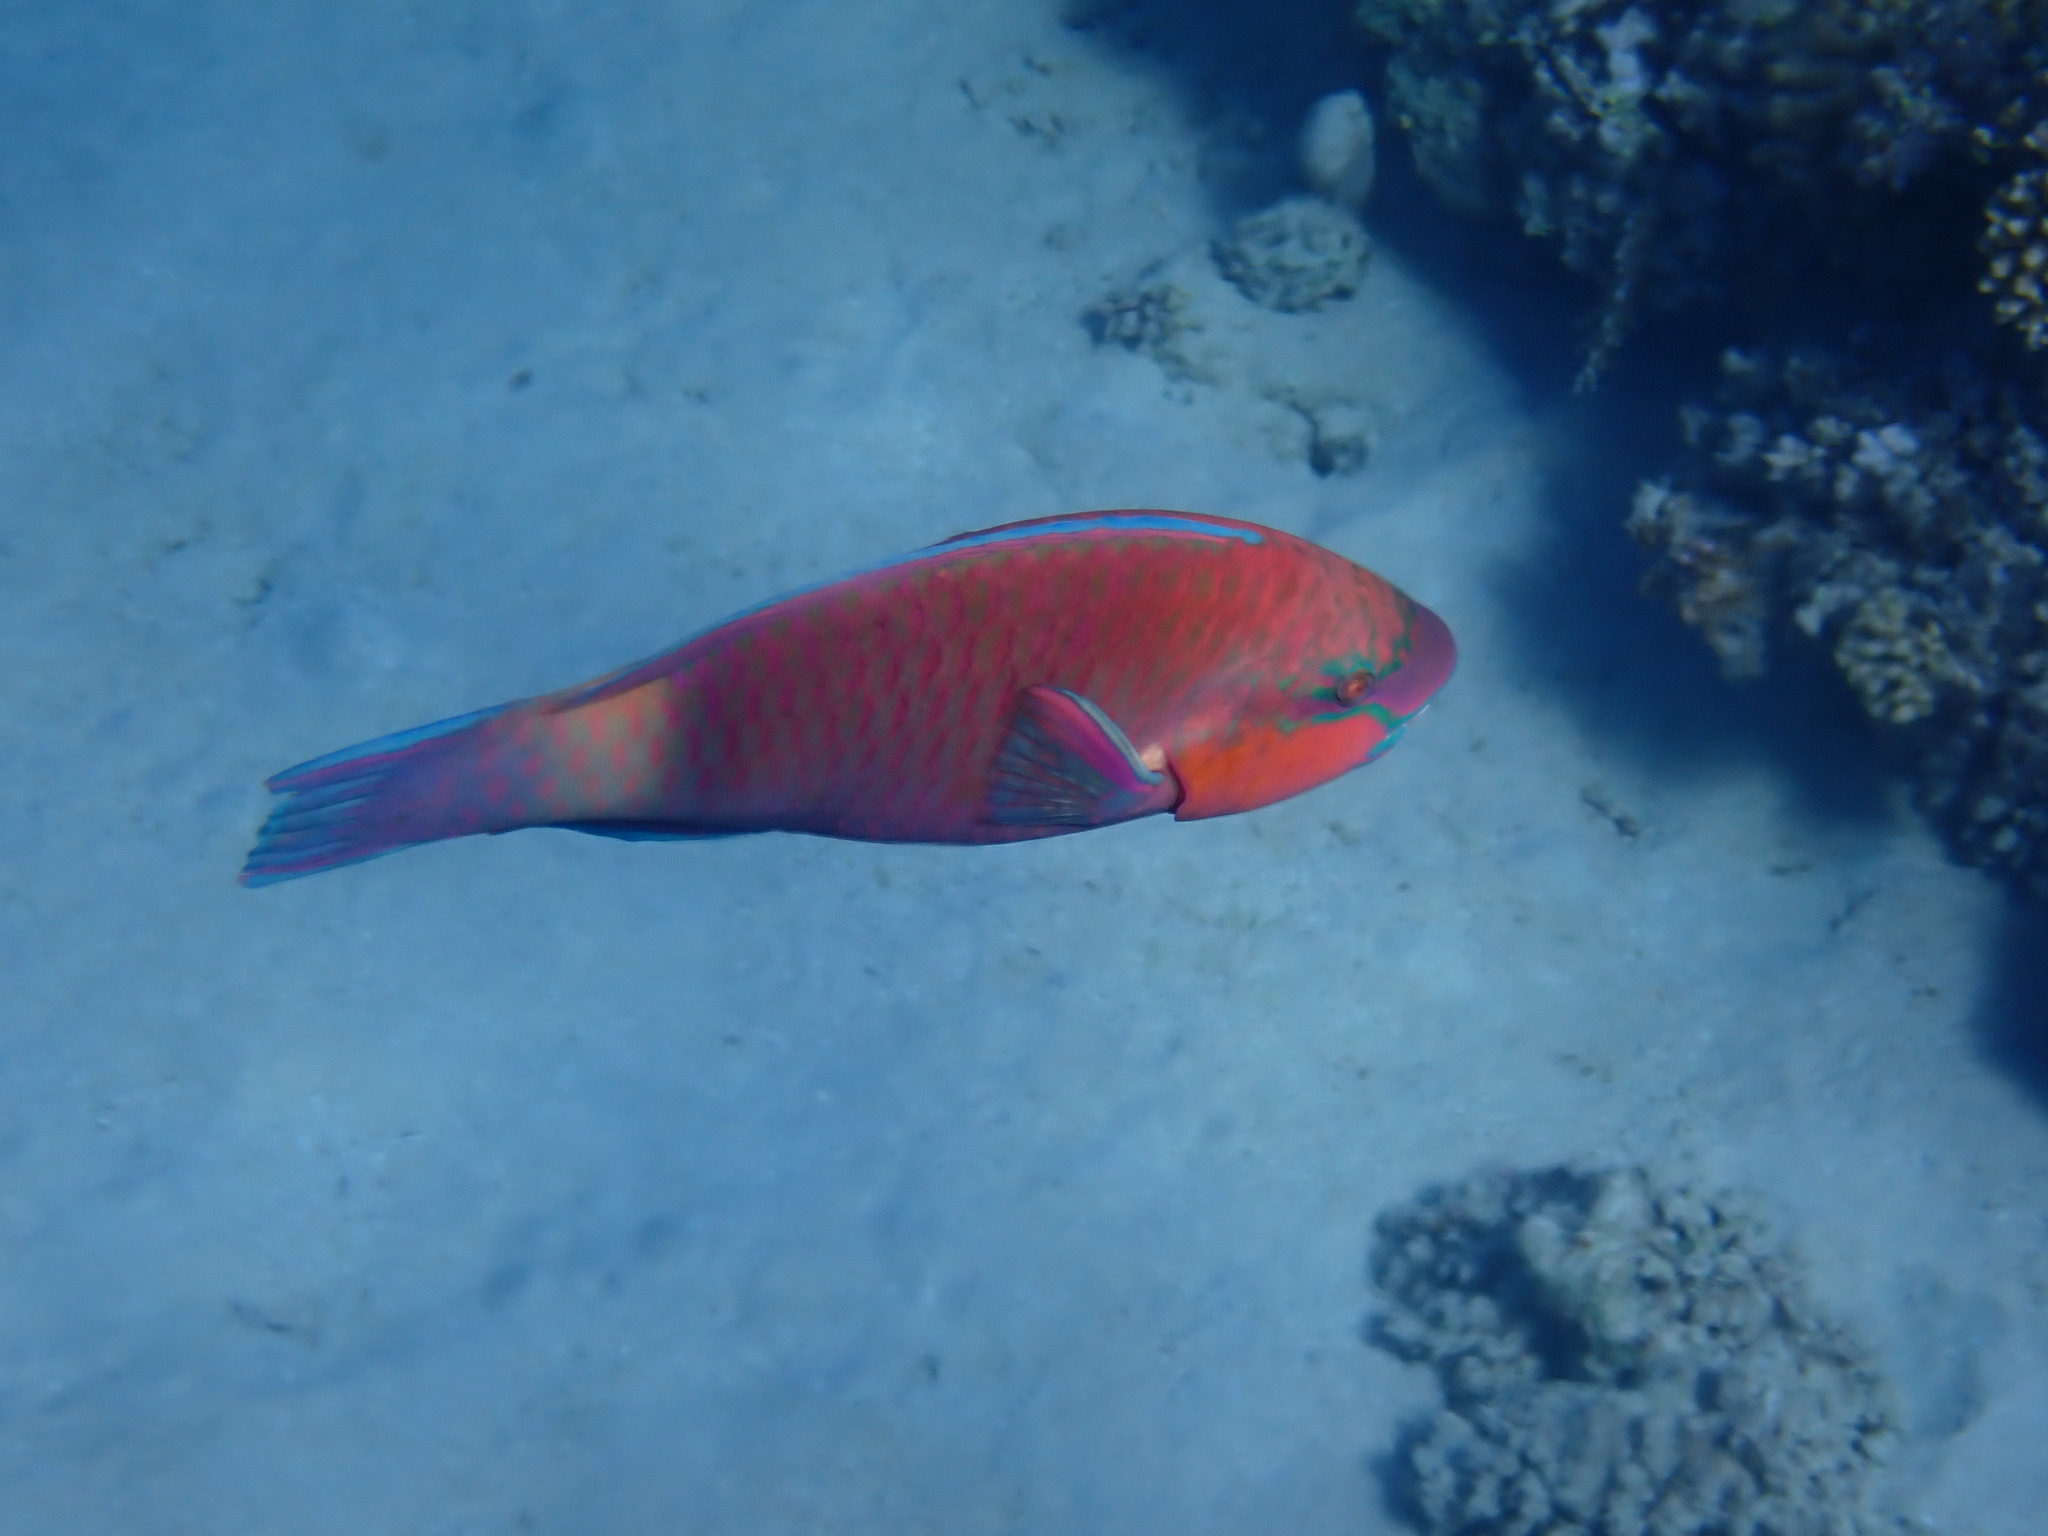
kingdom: Animalia
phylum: Chordata
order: Perciformes
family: Scaridae
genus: Chlorurus
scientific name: Chlorurus sordidus
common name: Bullethead parrotfish
